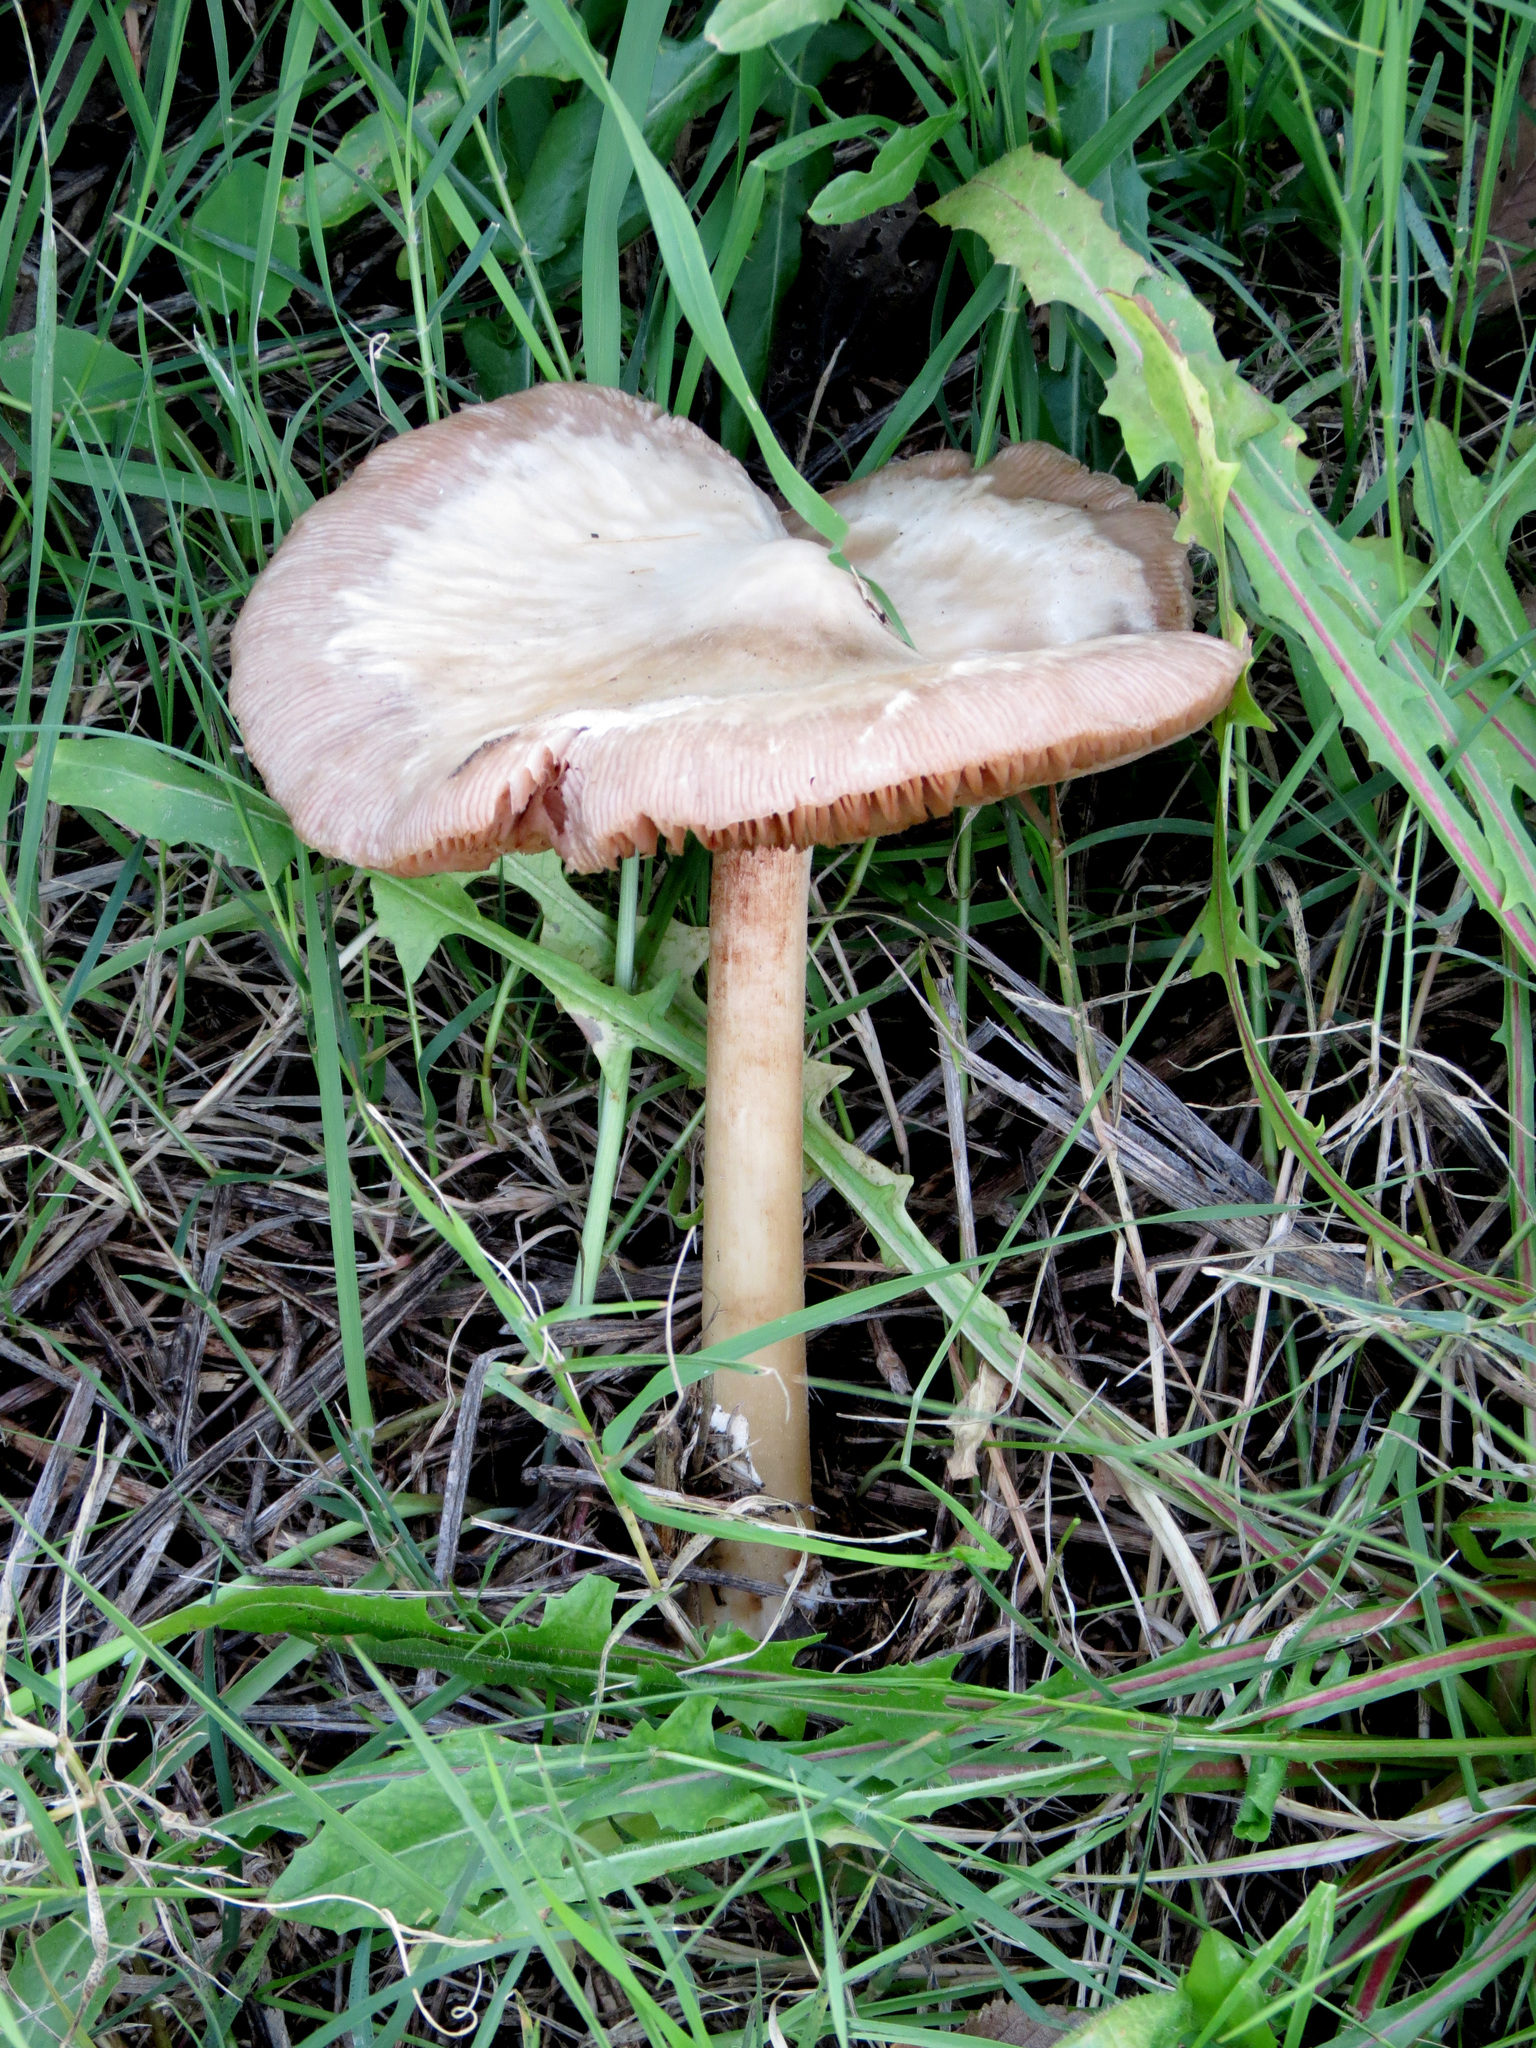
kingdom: Fungi
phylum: Basidiomycota
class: Agaricomycetes
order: Agaricales
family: Pluteaceae
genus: Volvopluteus
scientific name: Volvopluteus gloiocephalus
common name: Stubble rosegill
